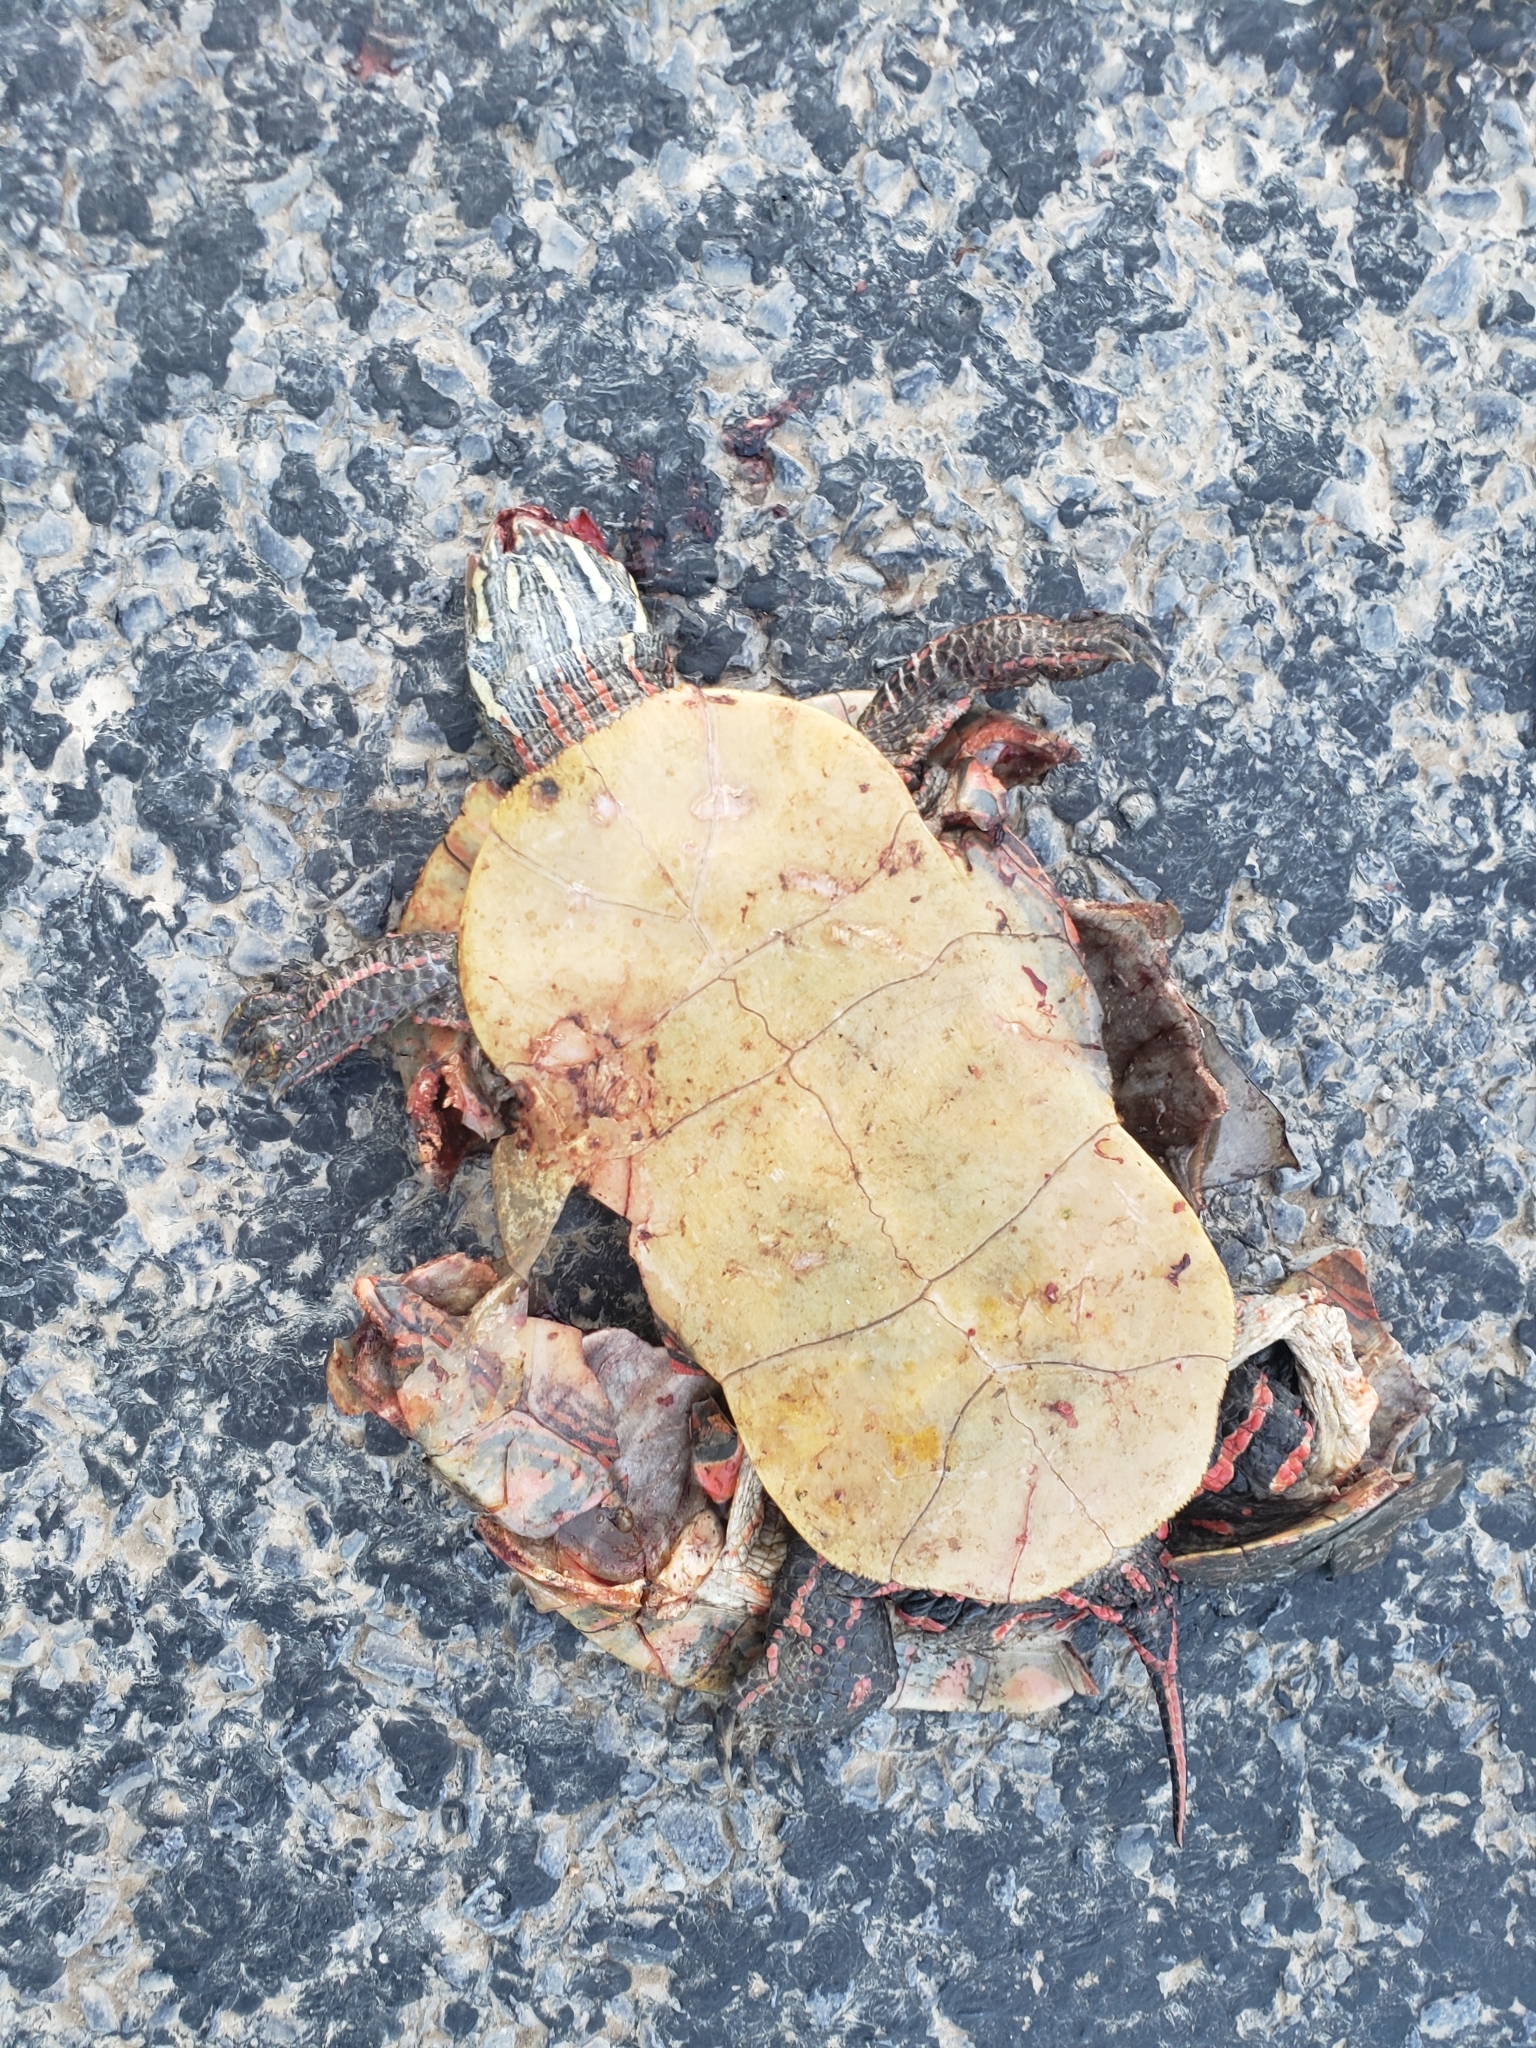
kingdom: Animalia
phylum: Chordata
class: Testudines
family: Emydidae
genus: Chrysemys
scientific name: Chrysemys picta
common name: Painted turtle
